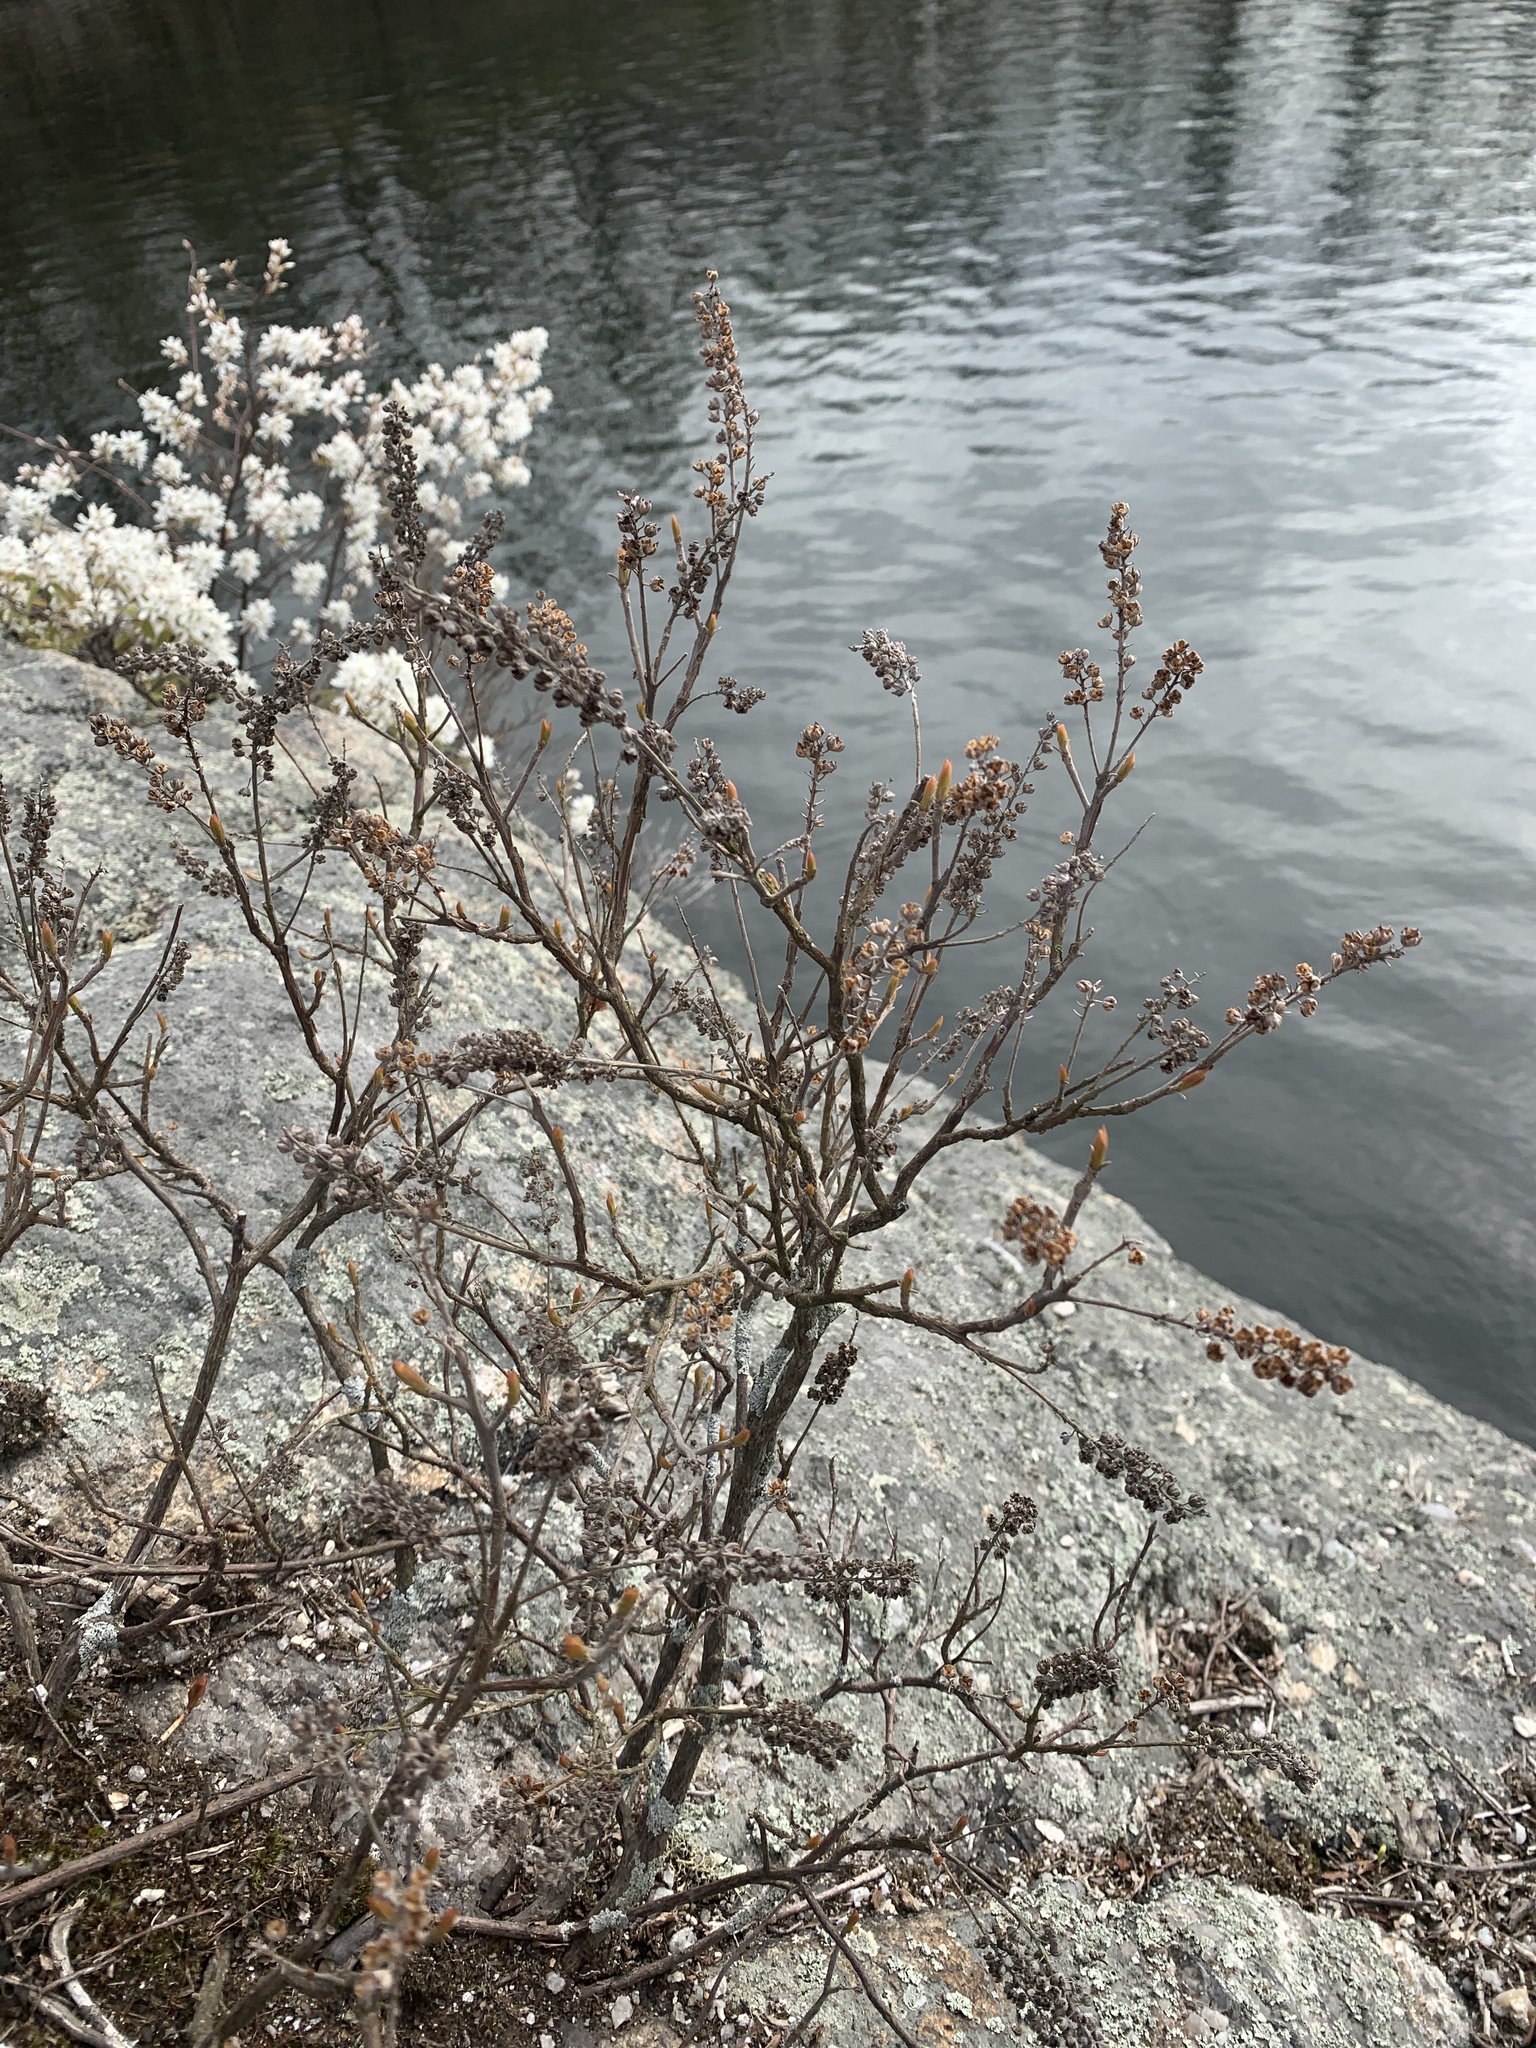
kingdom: Plantae
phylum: Tracheophyta
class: Magnoliopsida
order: Ericales
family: Clethraceae
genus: Clethra
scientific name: Clethra alnifolia
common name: Sweet pepperbush
